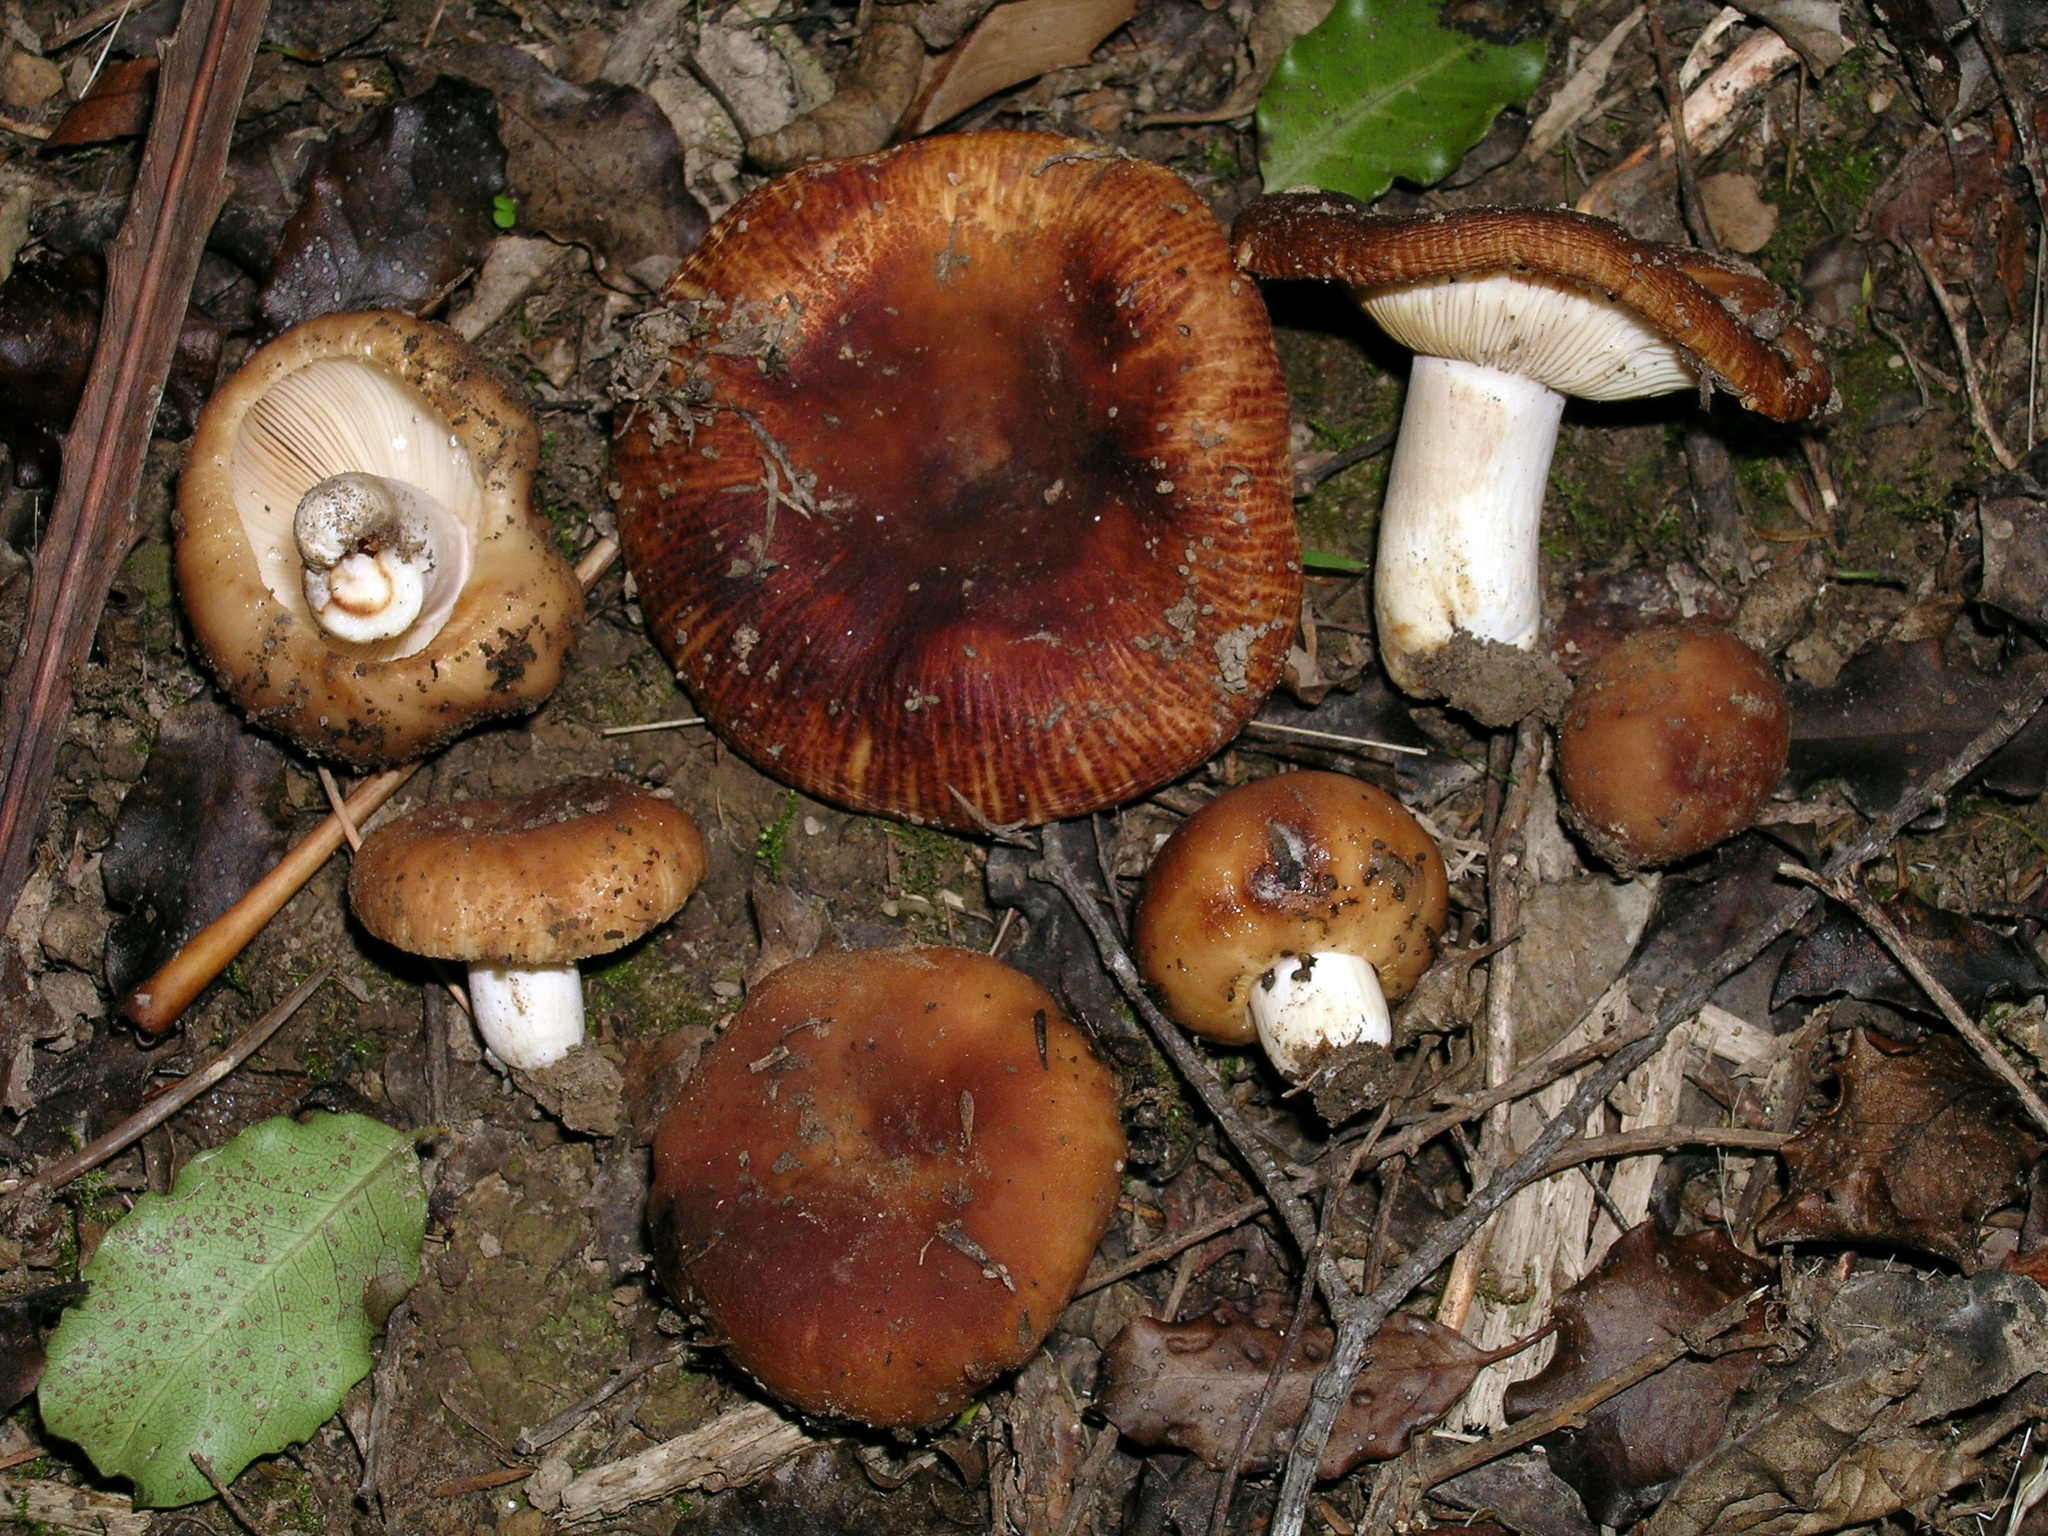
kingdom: Fungi
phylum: Basidiomycota
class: Agaricomycetes
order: Russulales
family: Russulaceae
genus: Russula
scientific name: Russula novae-zelandiae
